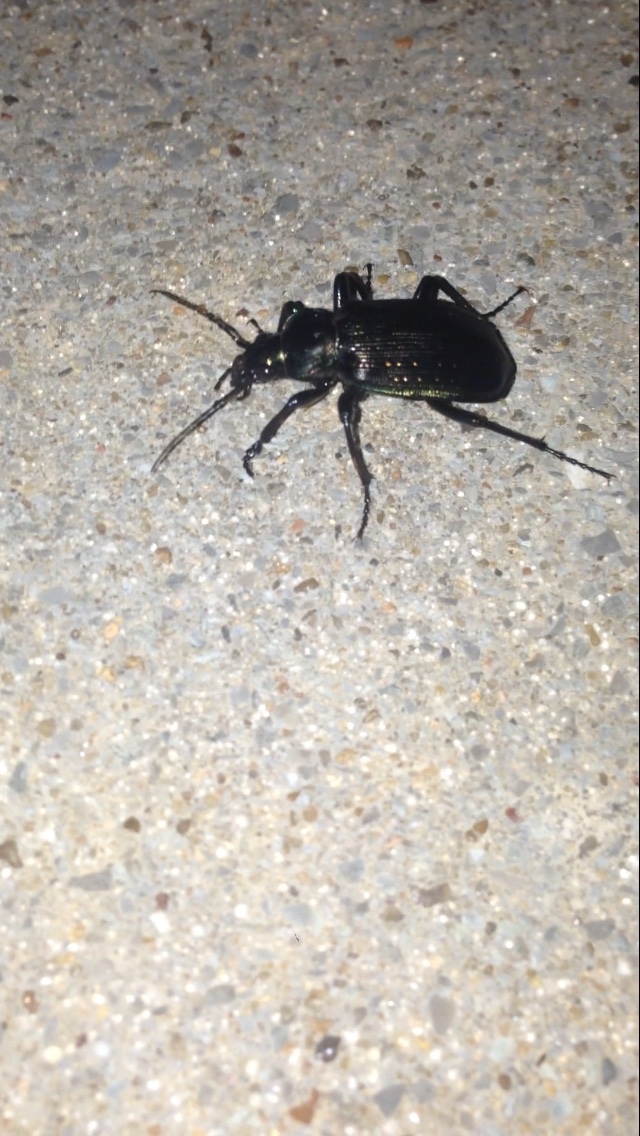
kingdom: Animalia
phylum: Arthropoda
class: Insecta
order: Coleoptera
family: Carabidae
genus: Calosoma
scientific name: Calosoma sayi
